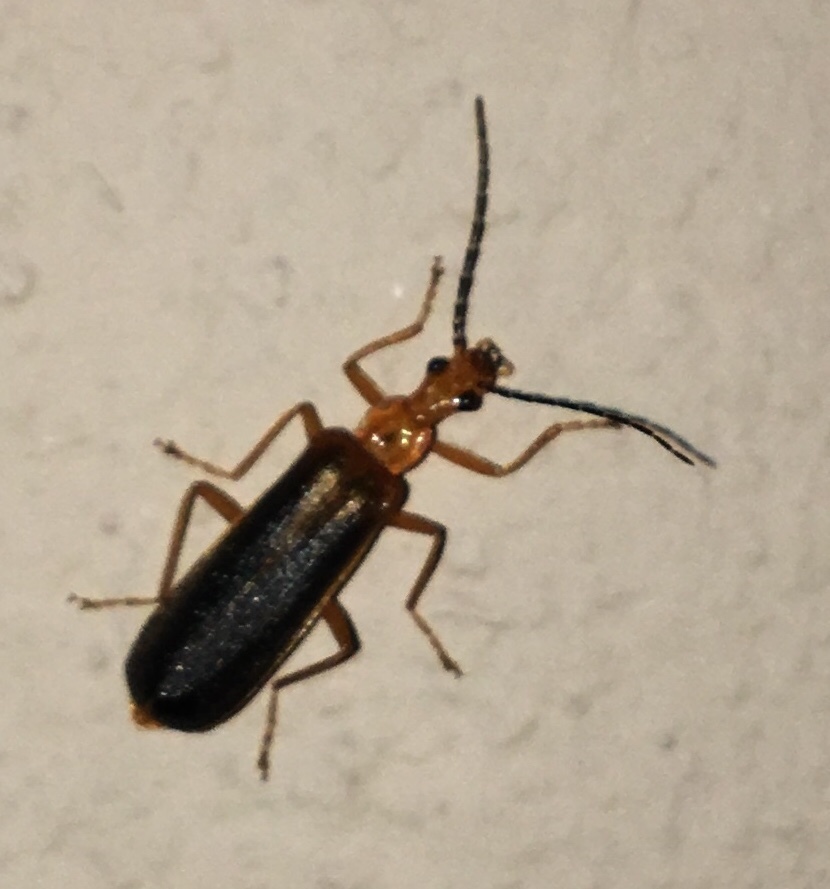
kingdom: Animalia
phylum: Arthropoda
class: Insecta
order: Coleoptera
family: Cantharidae
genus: Podabrus
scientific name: Podabrus protensus
